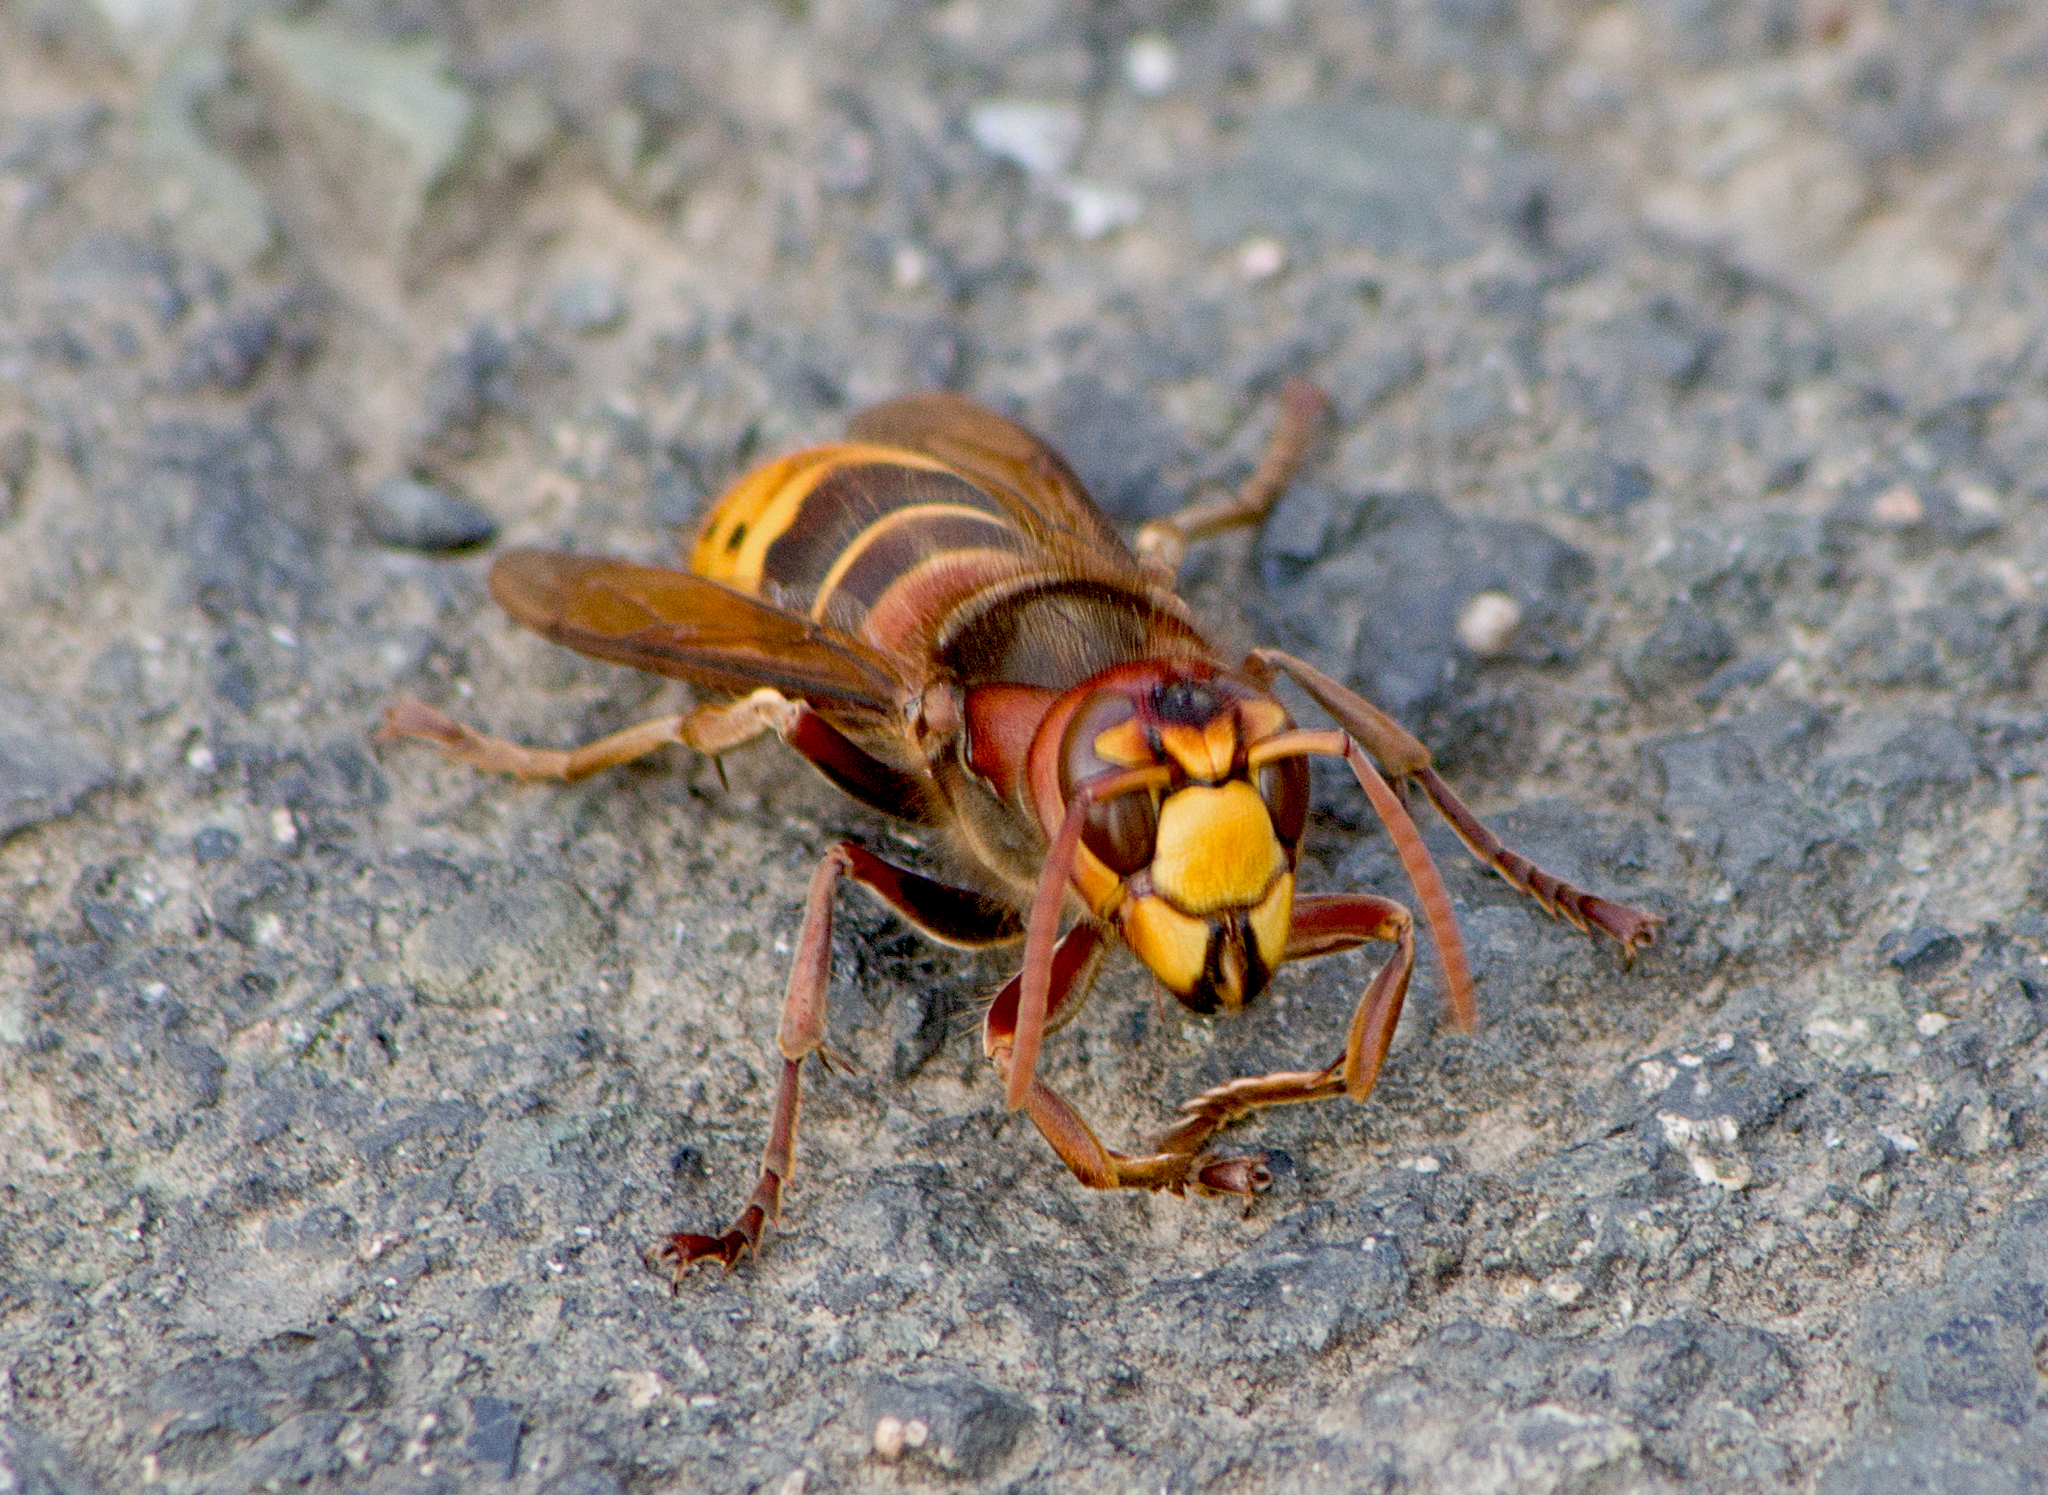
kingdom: Animalia
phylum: Arthropoda
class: Insecta
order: Hymenoptera
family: Vespidae
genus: Vespa
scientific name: Vespa crabro
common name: Hornet
